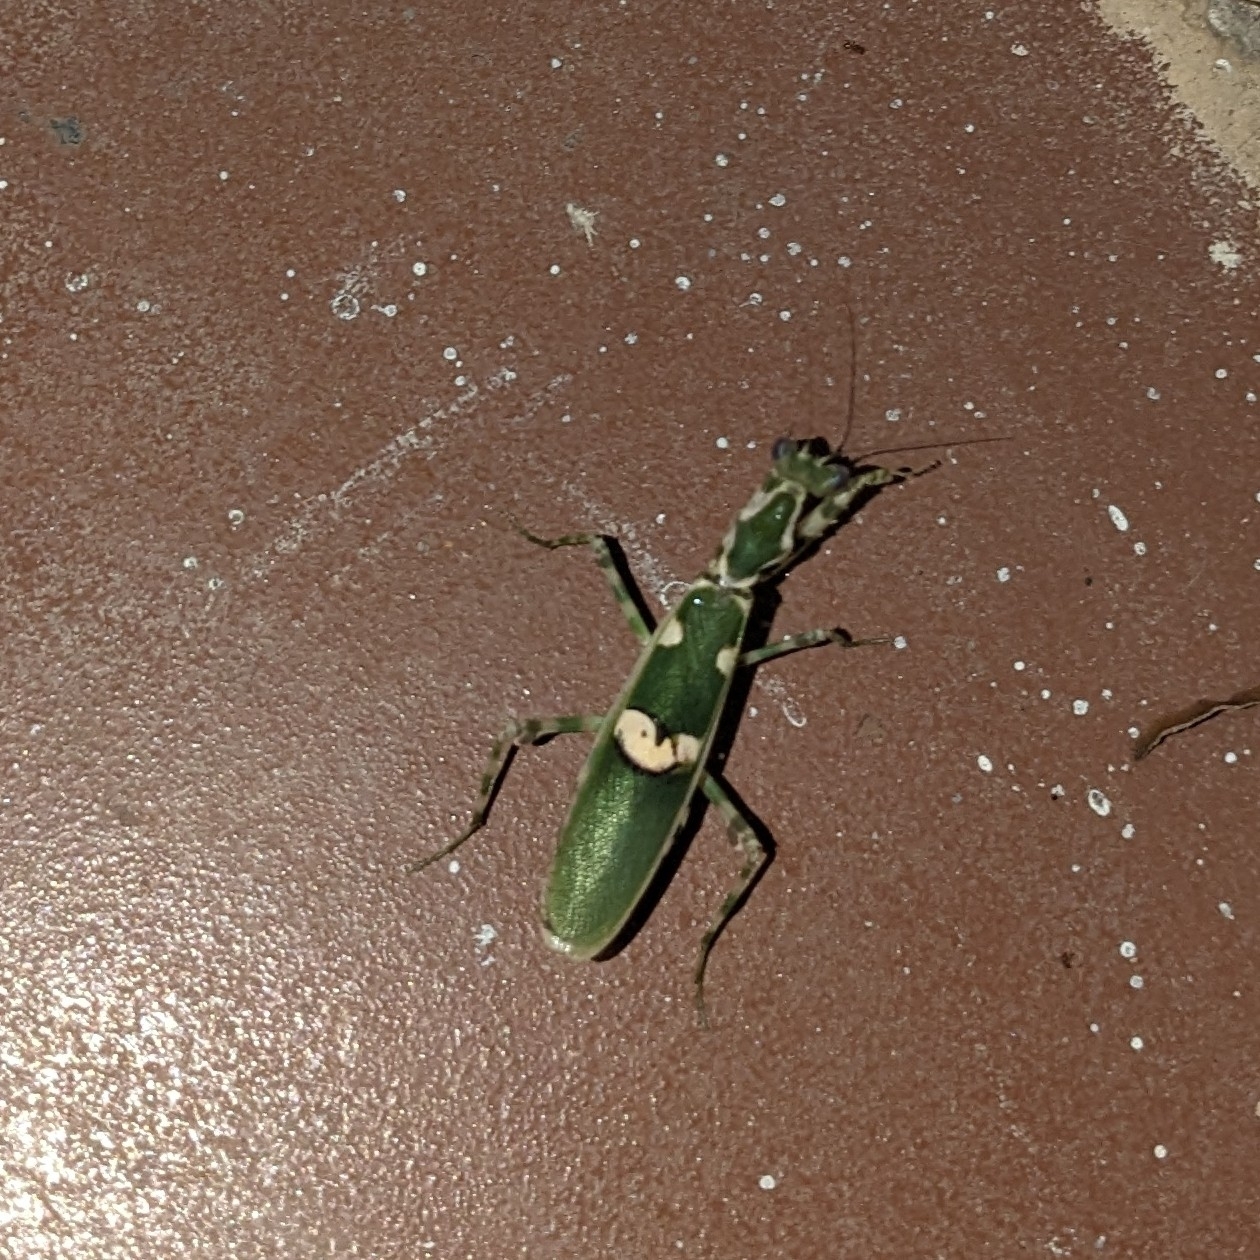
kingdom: Animalia
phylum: Arthropoda
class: Insecta
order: Mantodea
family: Hymenopodidae
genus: Creobroter
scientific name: Creobroter gemmatus
